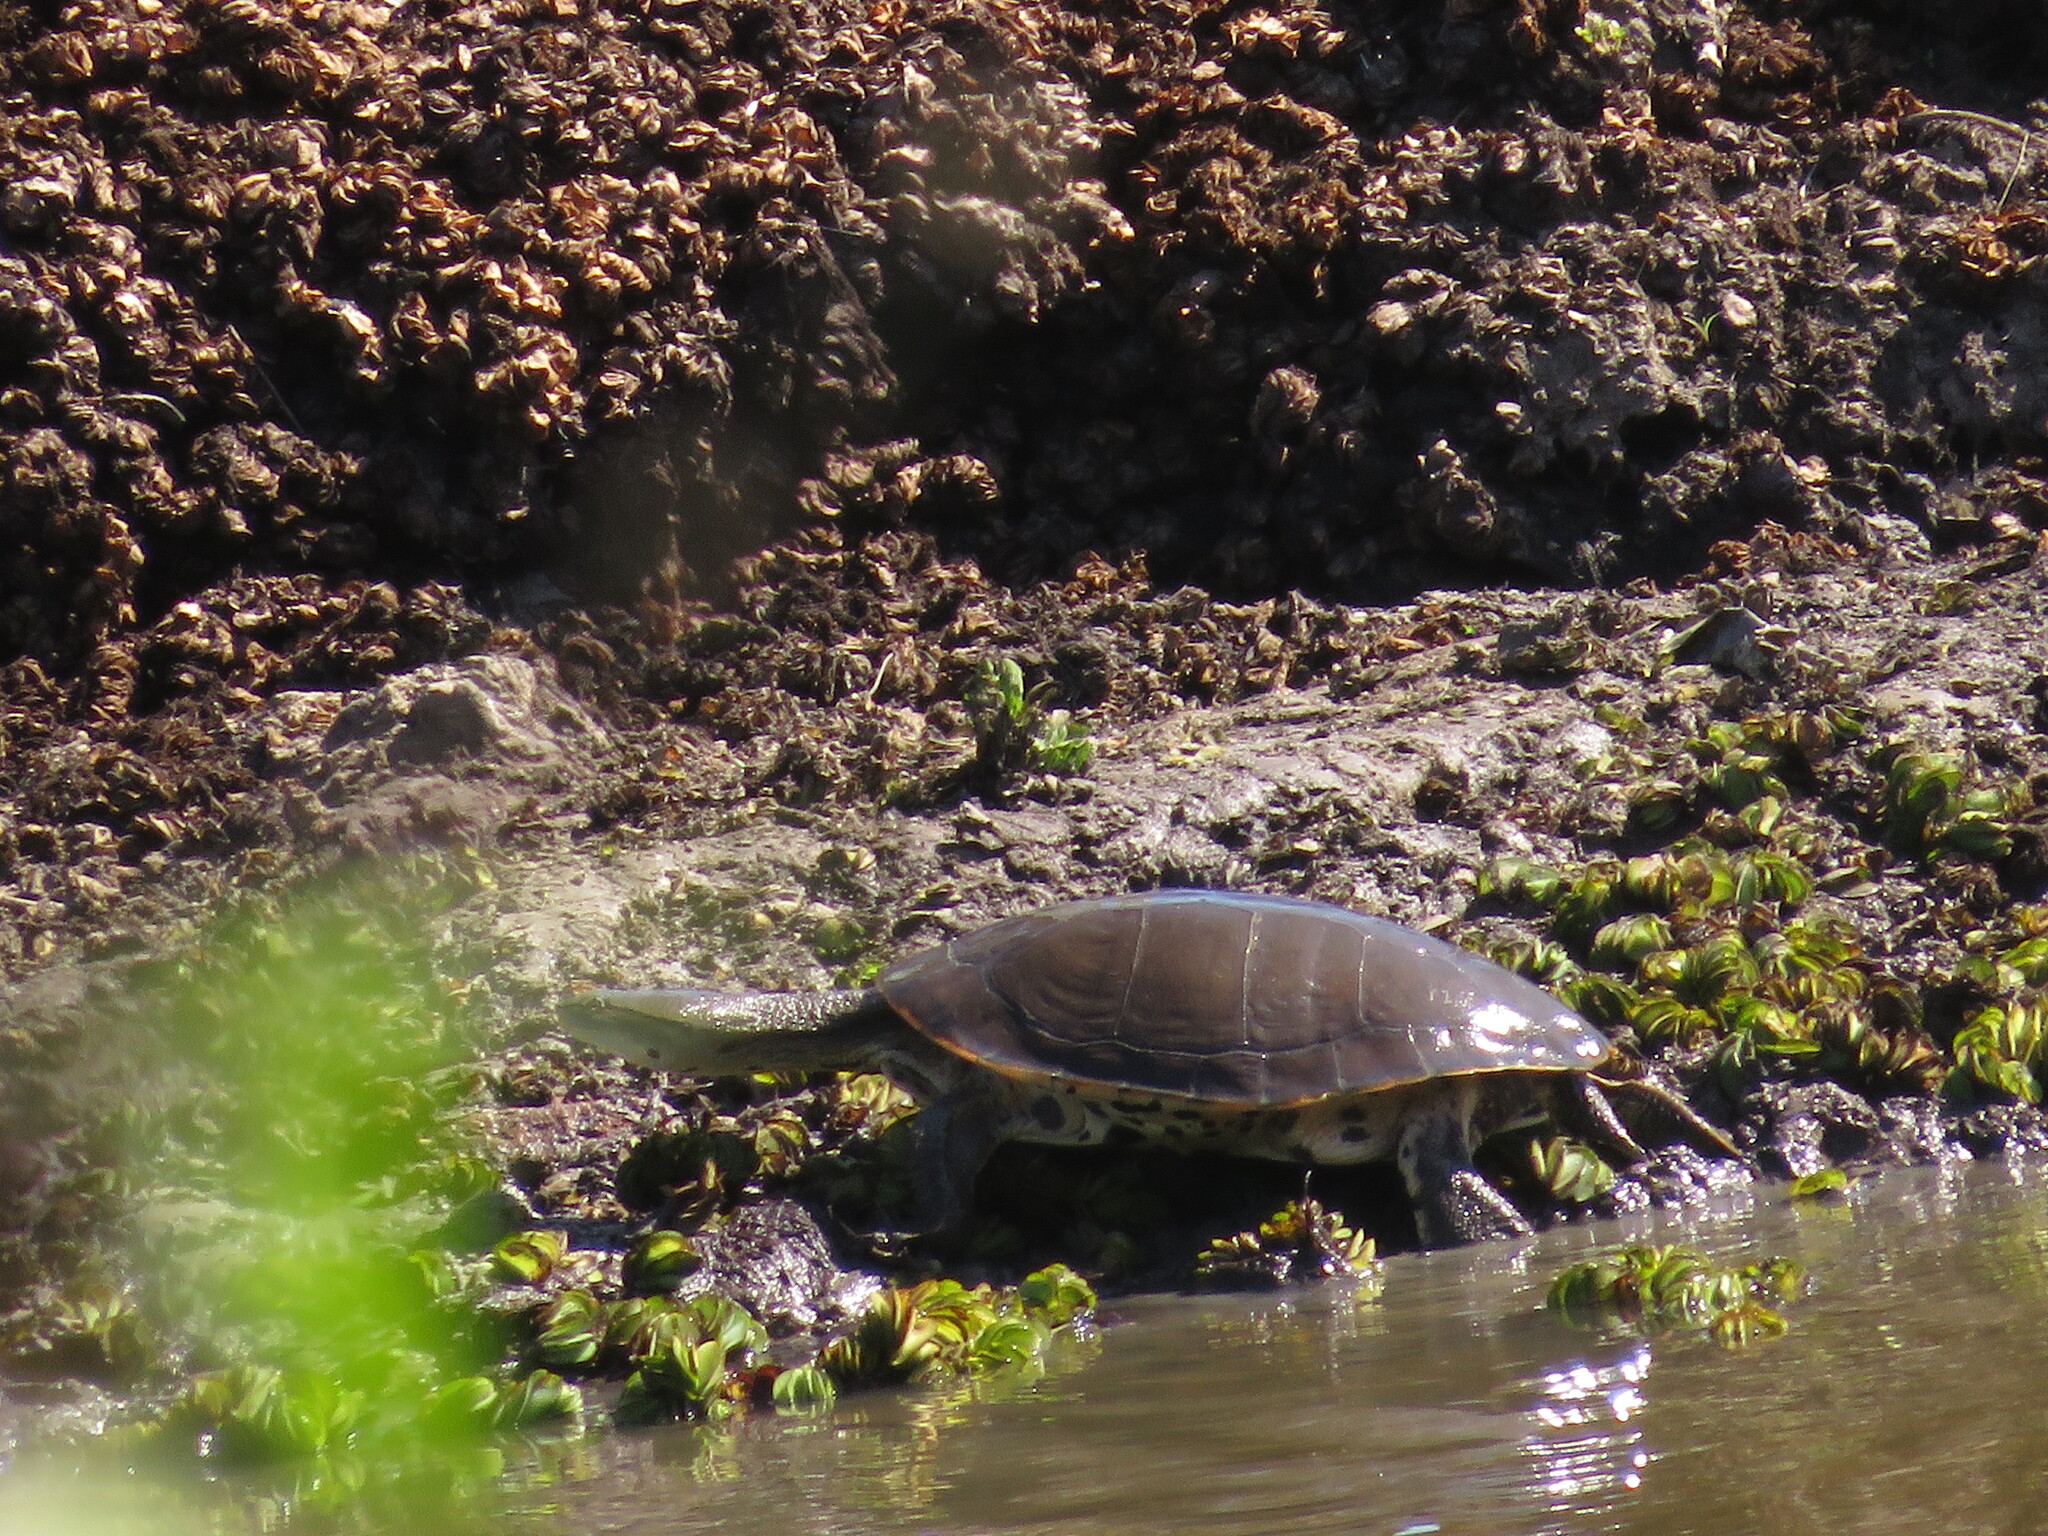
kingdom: Animalia
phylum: Chordata
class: Testudines
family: Chelidae
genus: Phrynops
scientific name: Phrynops hilarii
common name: Side-necked turtle of saint hillaire
